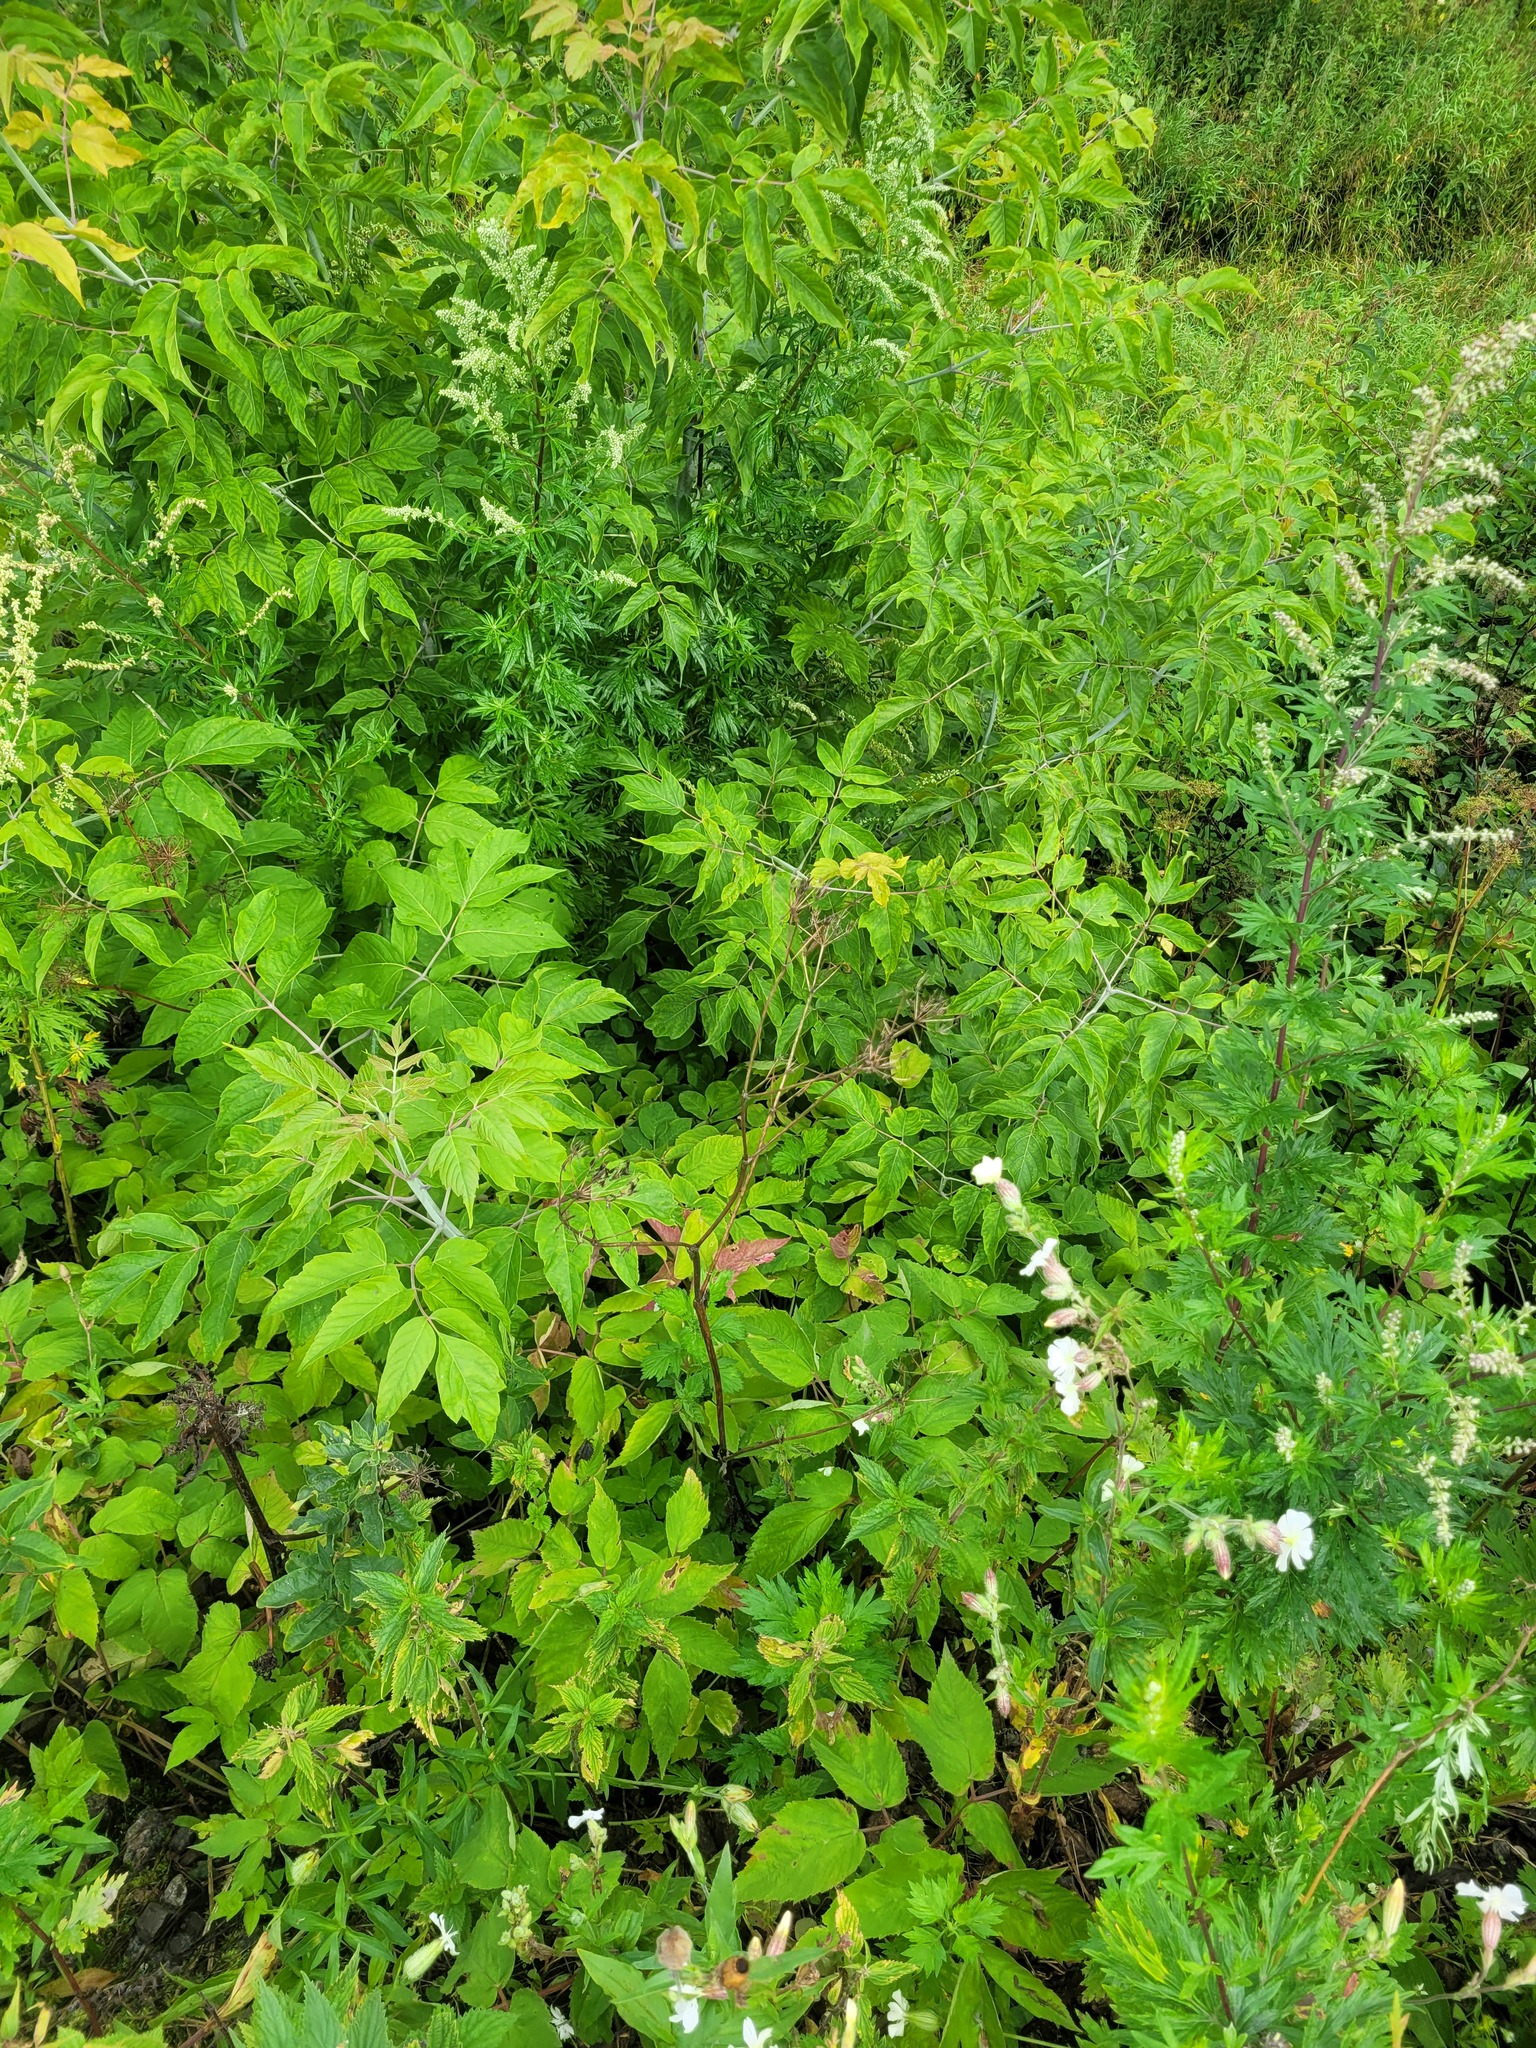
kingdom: Plantae
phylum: Tracheophyta
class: Magnoliopsida
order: Apiales
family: Apiaceae
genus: Anthriscus
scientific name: Anthriscus sylvestris
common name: Cow parsley
